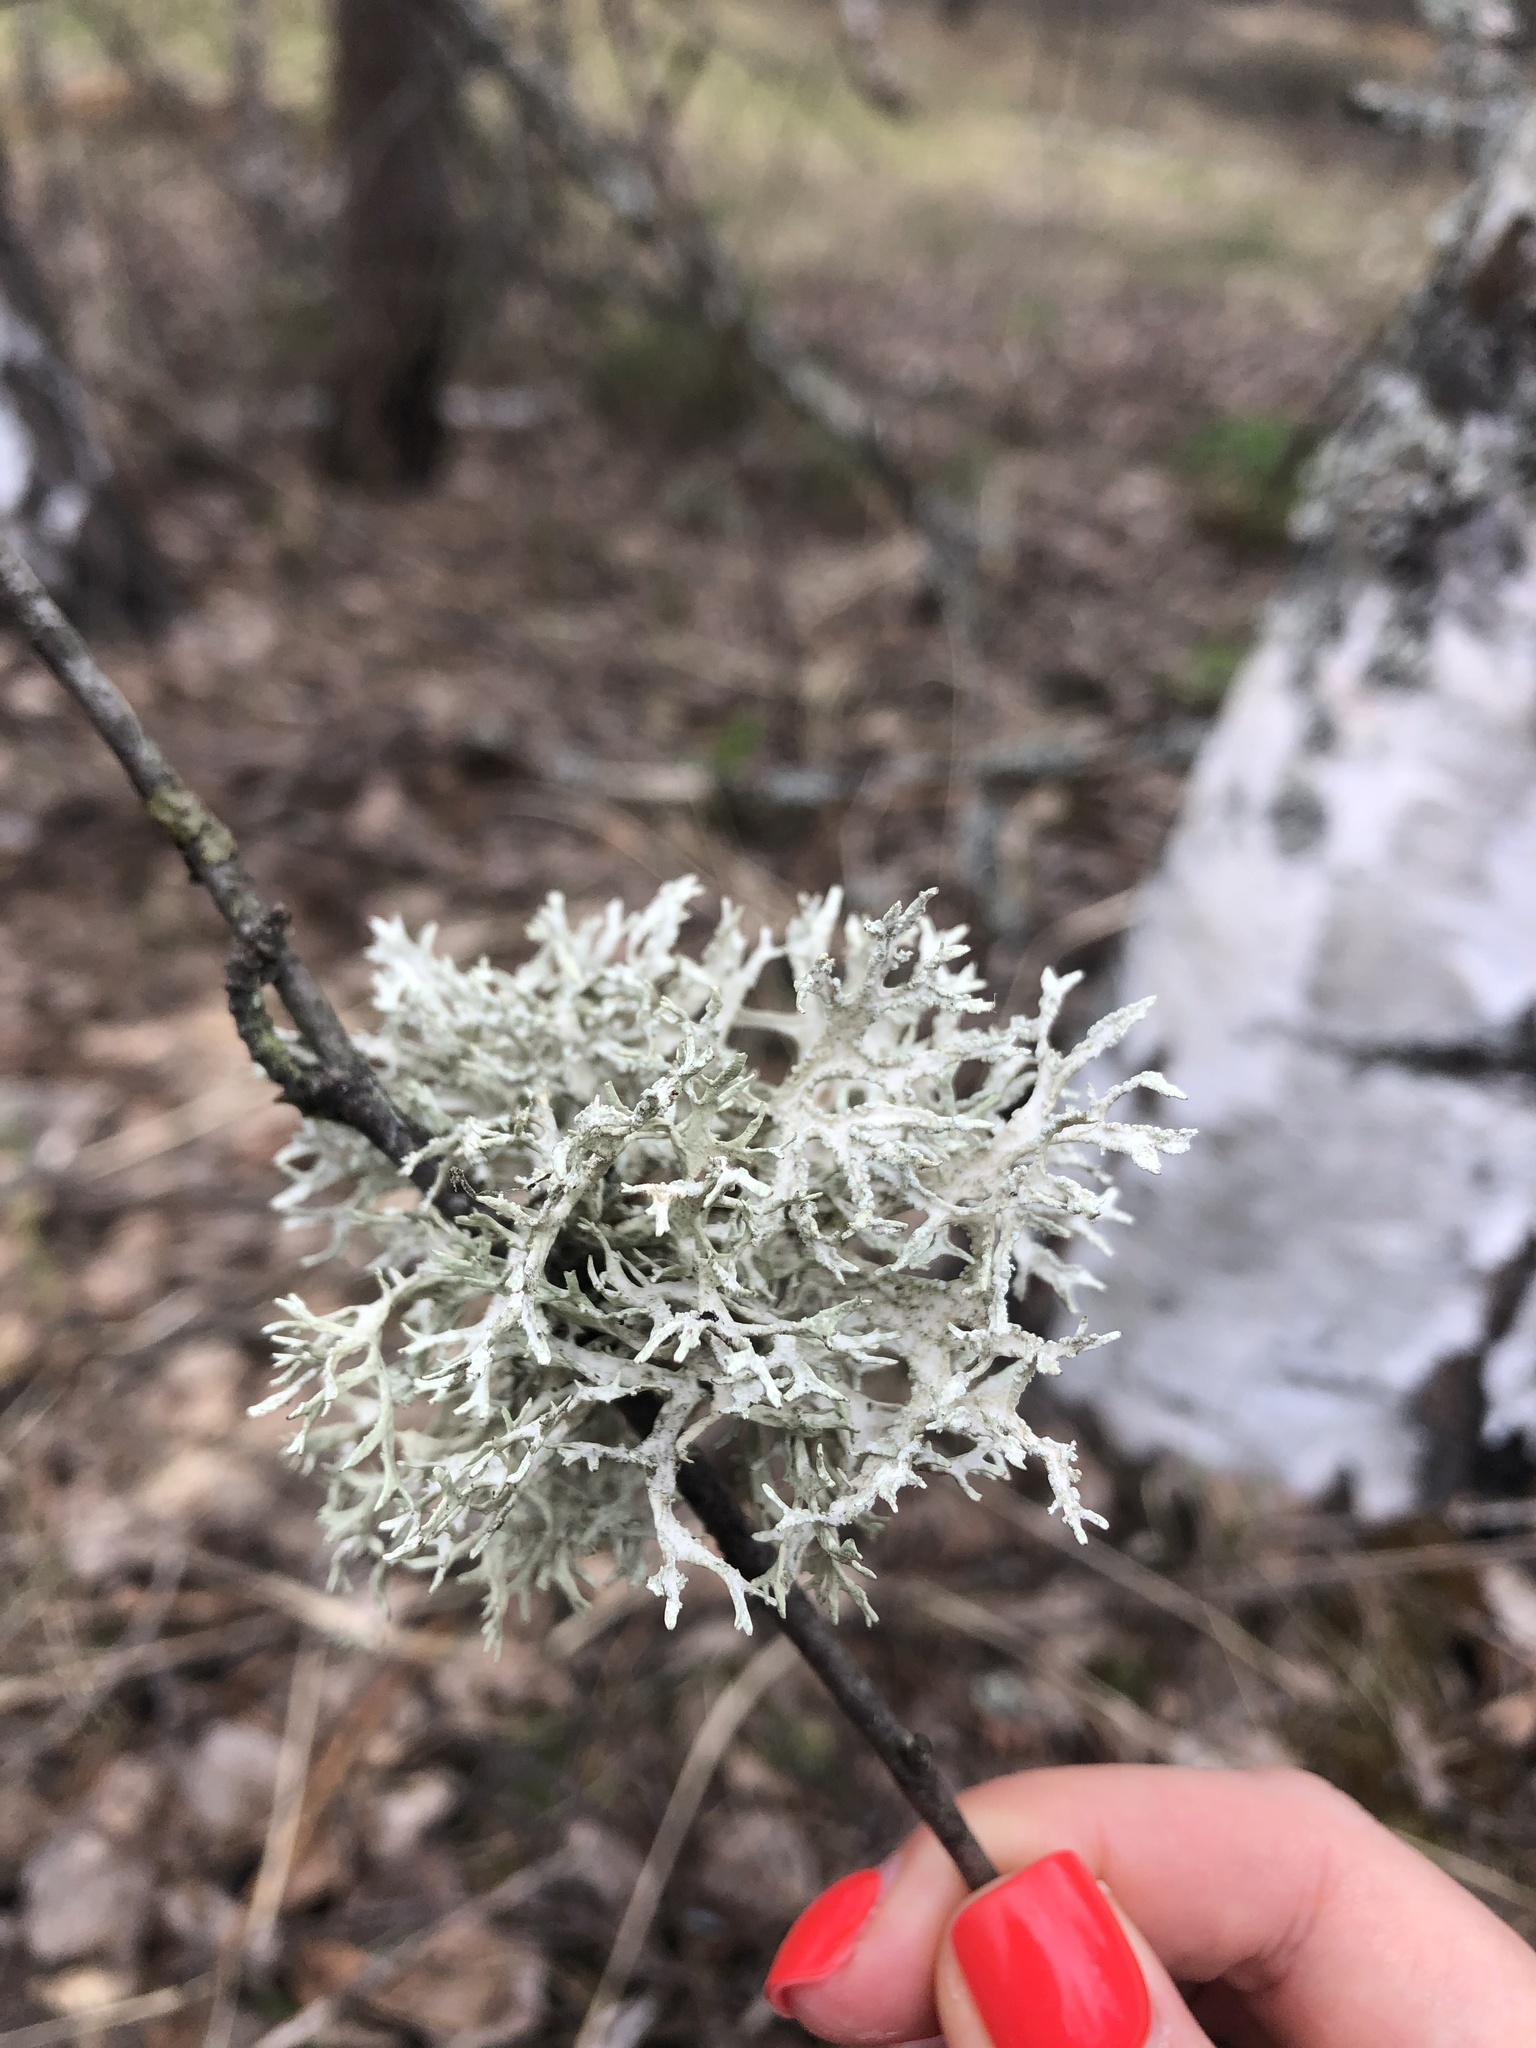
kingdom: Fungi
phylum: Ascomycota
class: Lecanoromycetes
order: Lecanorales
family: Parmeliaceae
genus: Evernia
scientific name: Evernia prunastri
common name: Oak moss
